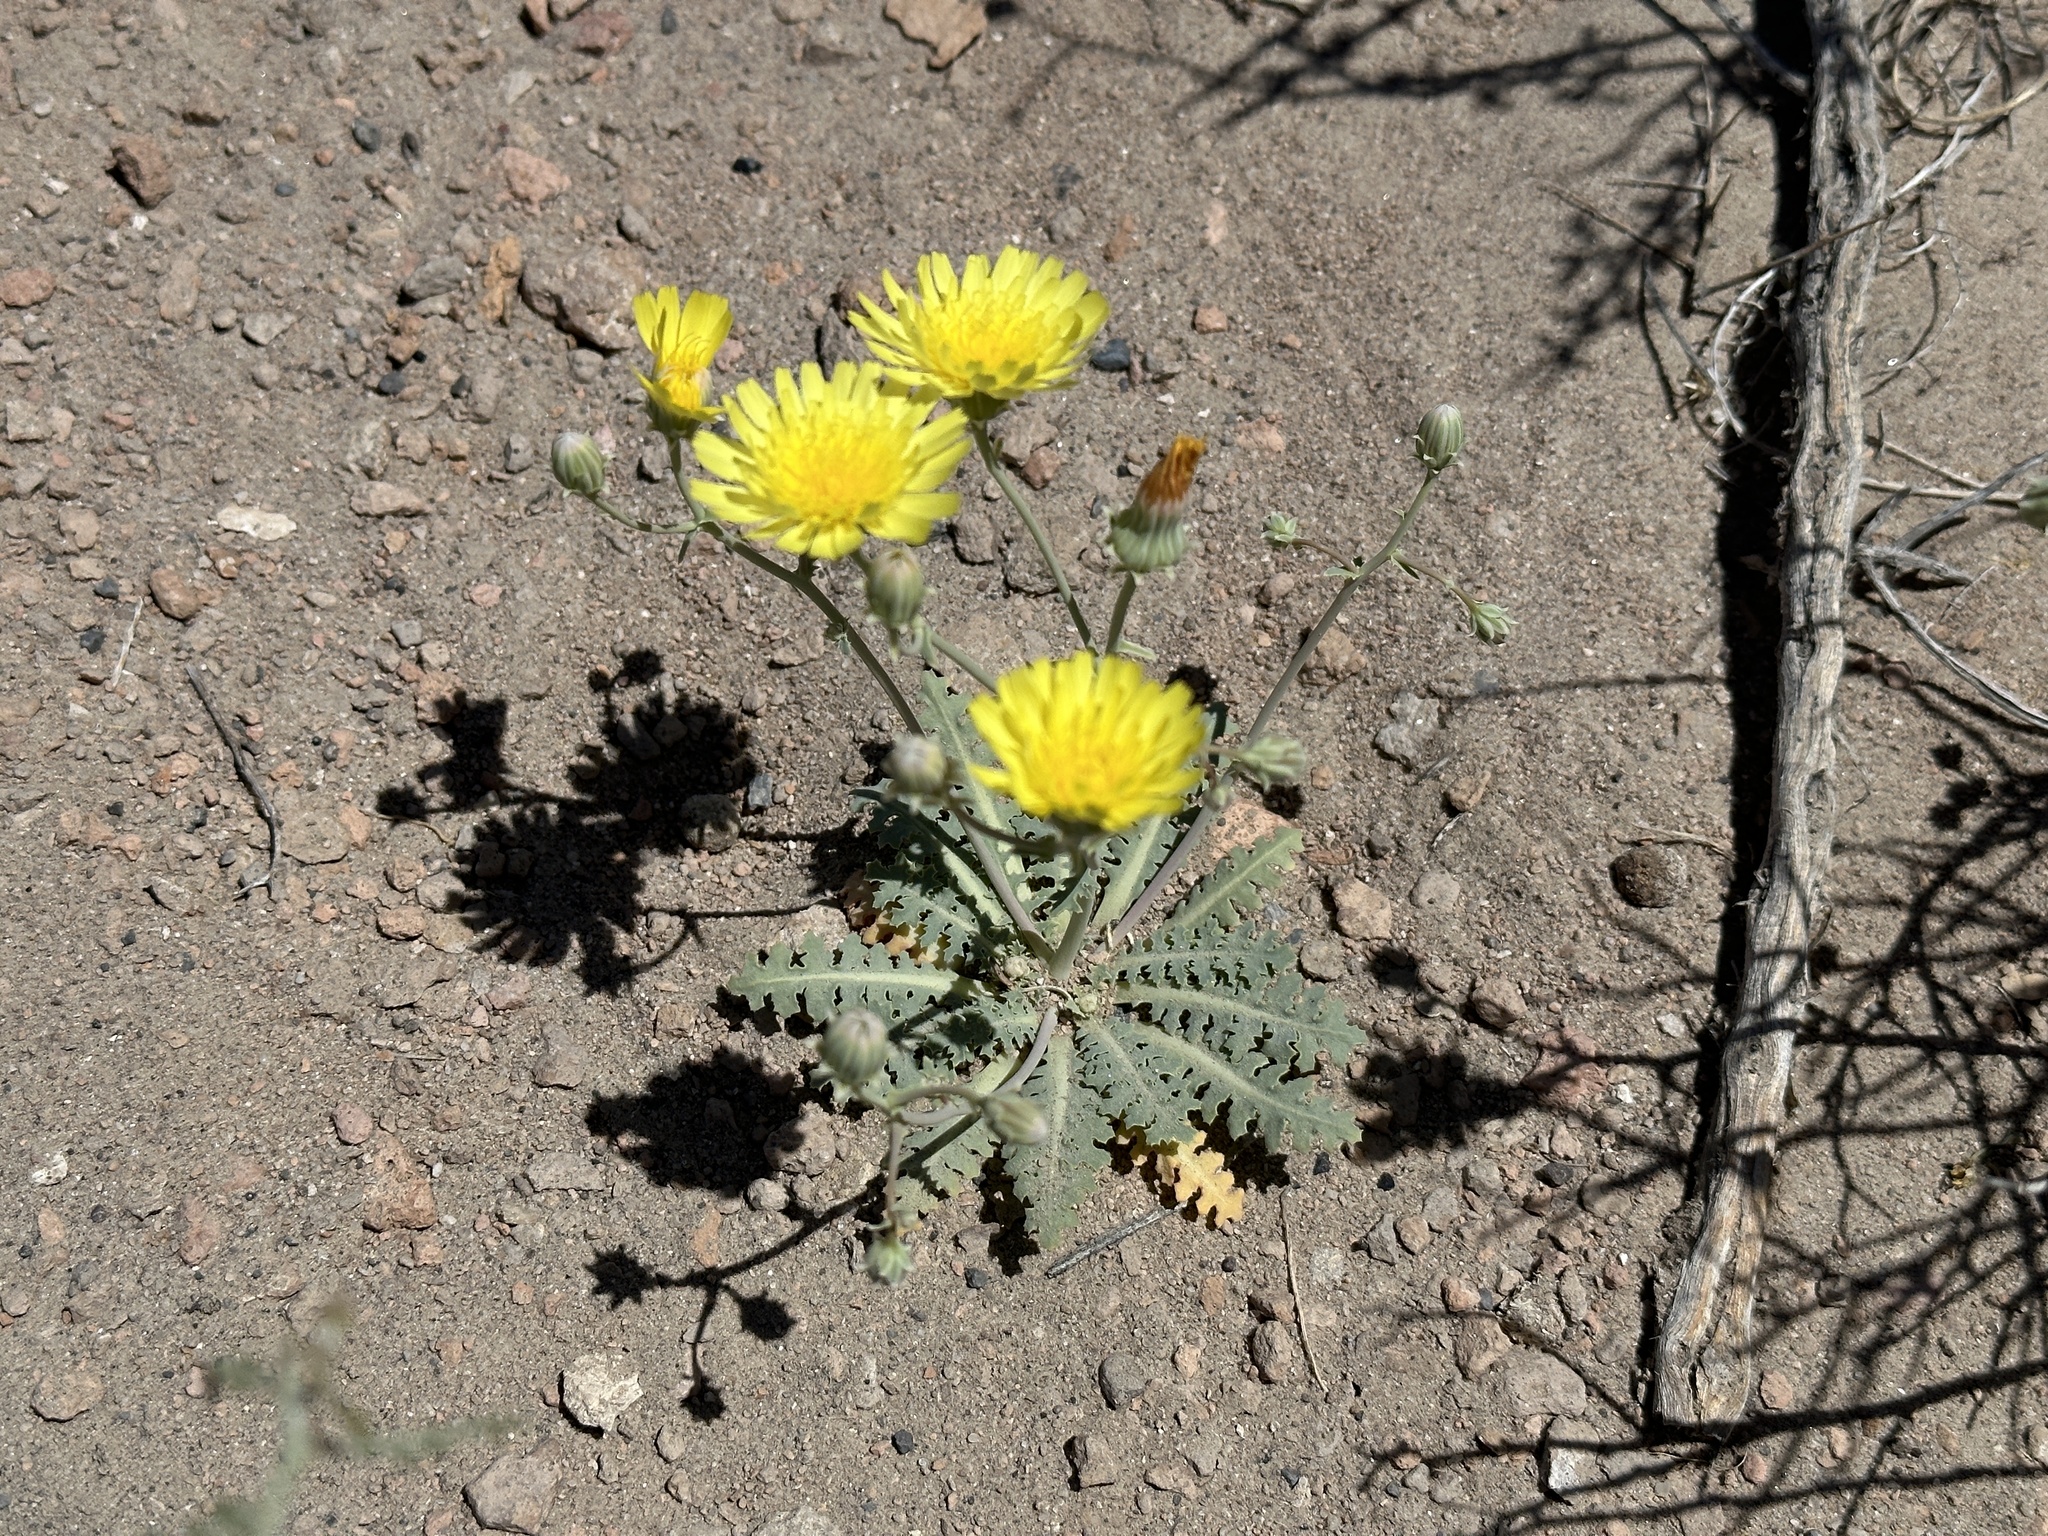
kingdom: Plantae
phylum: Tracheophyta
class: Magnoliopsida
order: Asterales
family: Asteraceae
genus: Malacothrix
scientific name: Malacothrix sonchoides
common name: Sow-thistle desert-dandelion
